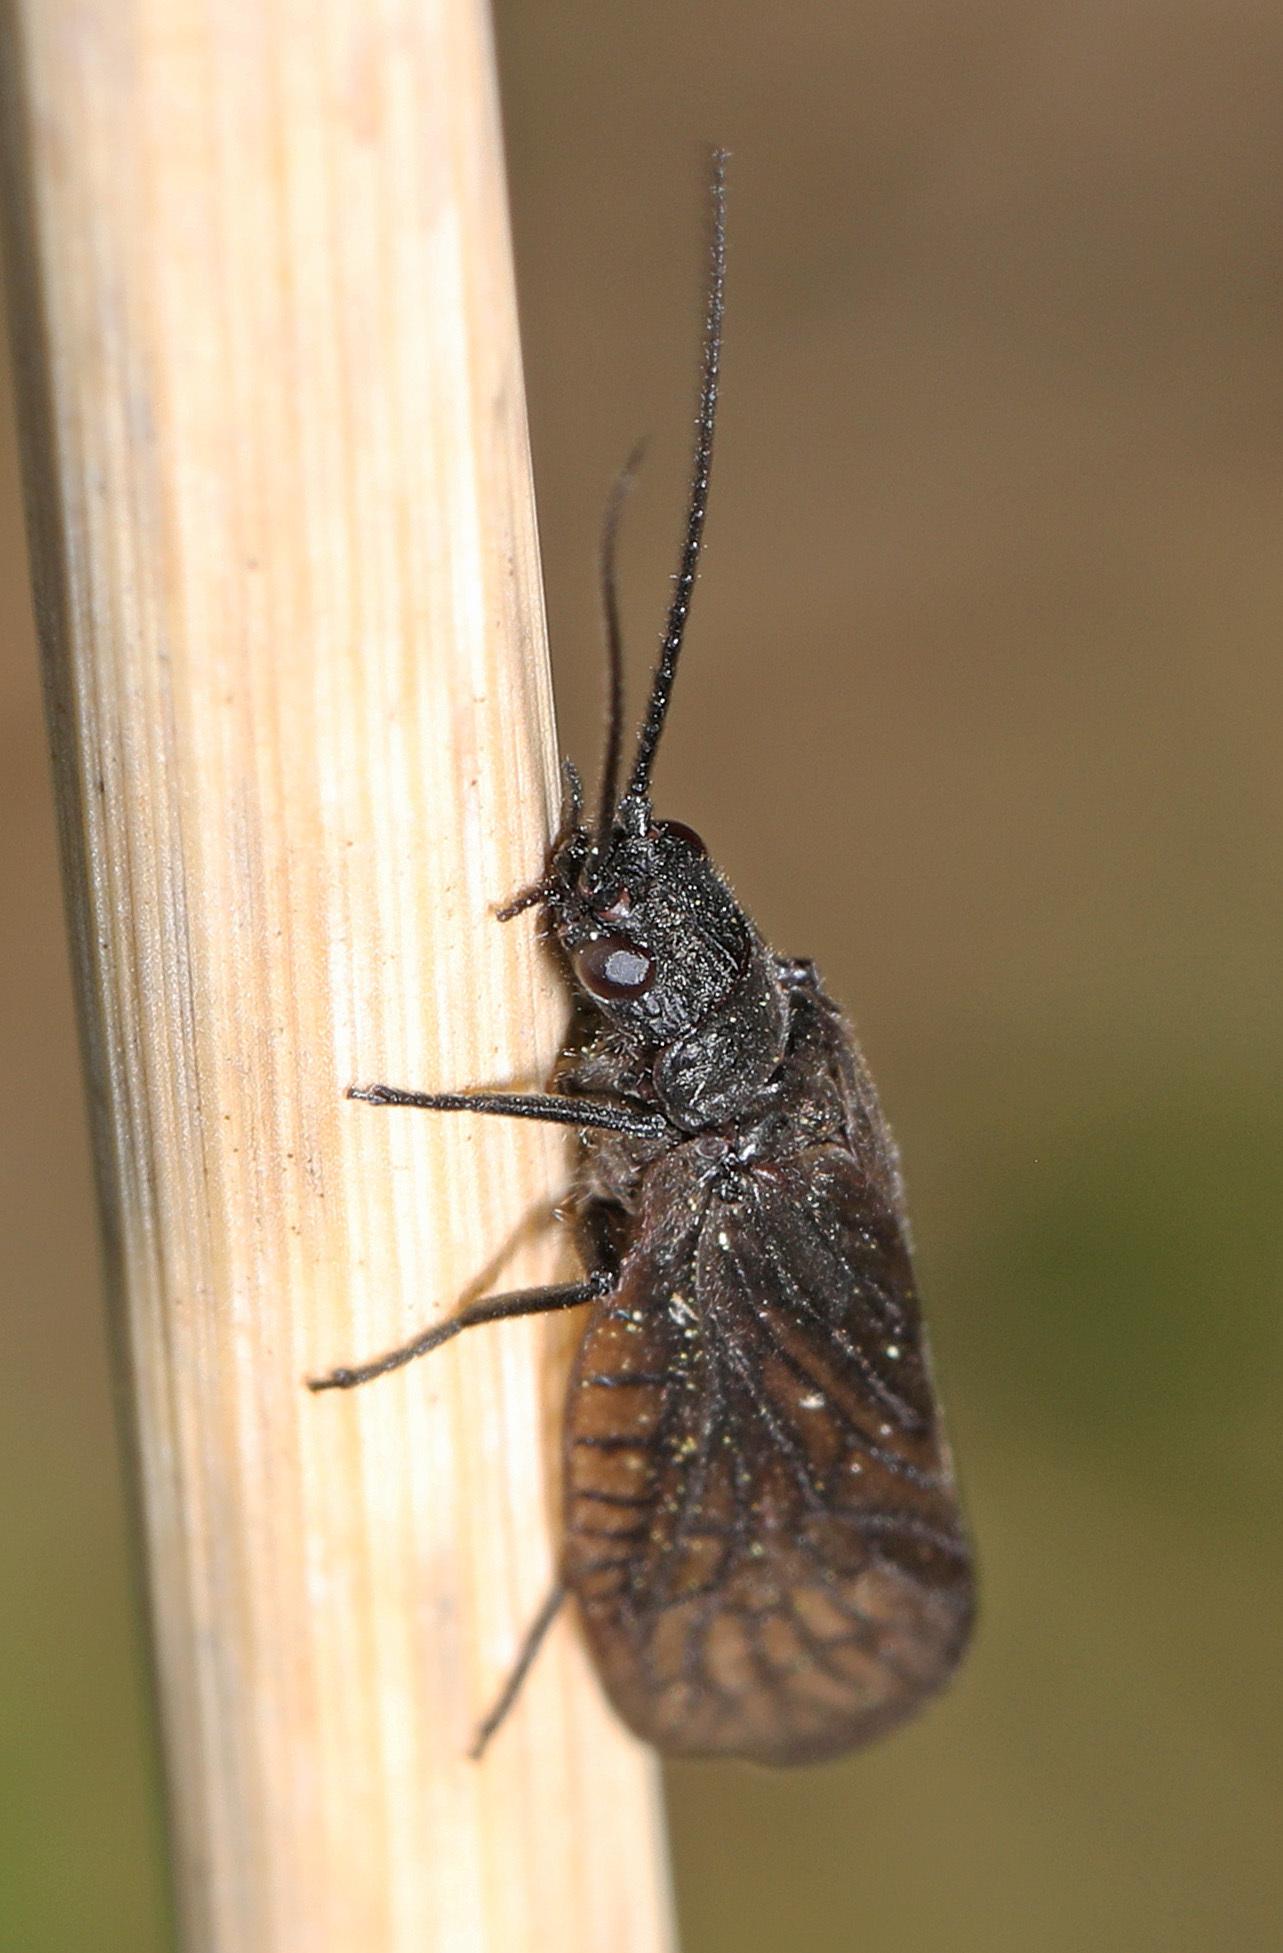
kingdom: Animalia
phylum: Arthropoda
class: Insecta
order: Megaloptera
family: Sialidae
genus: Sialis
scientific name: Sialis
